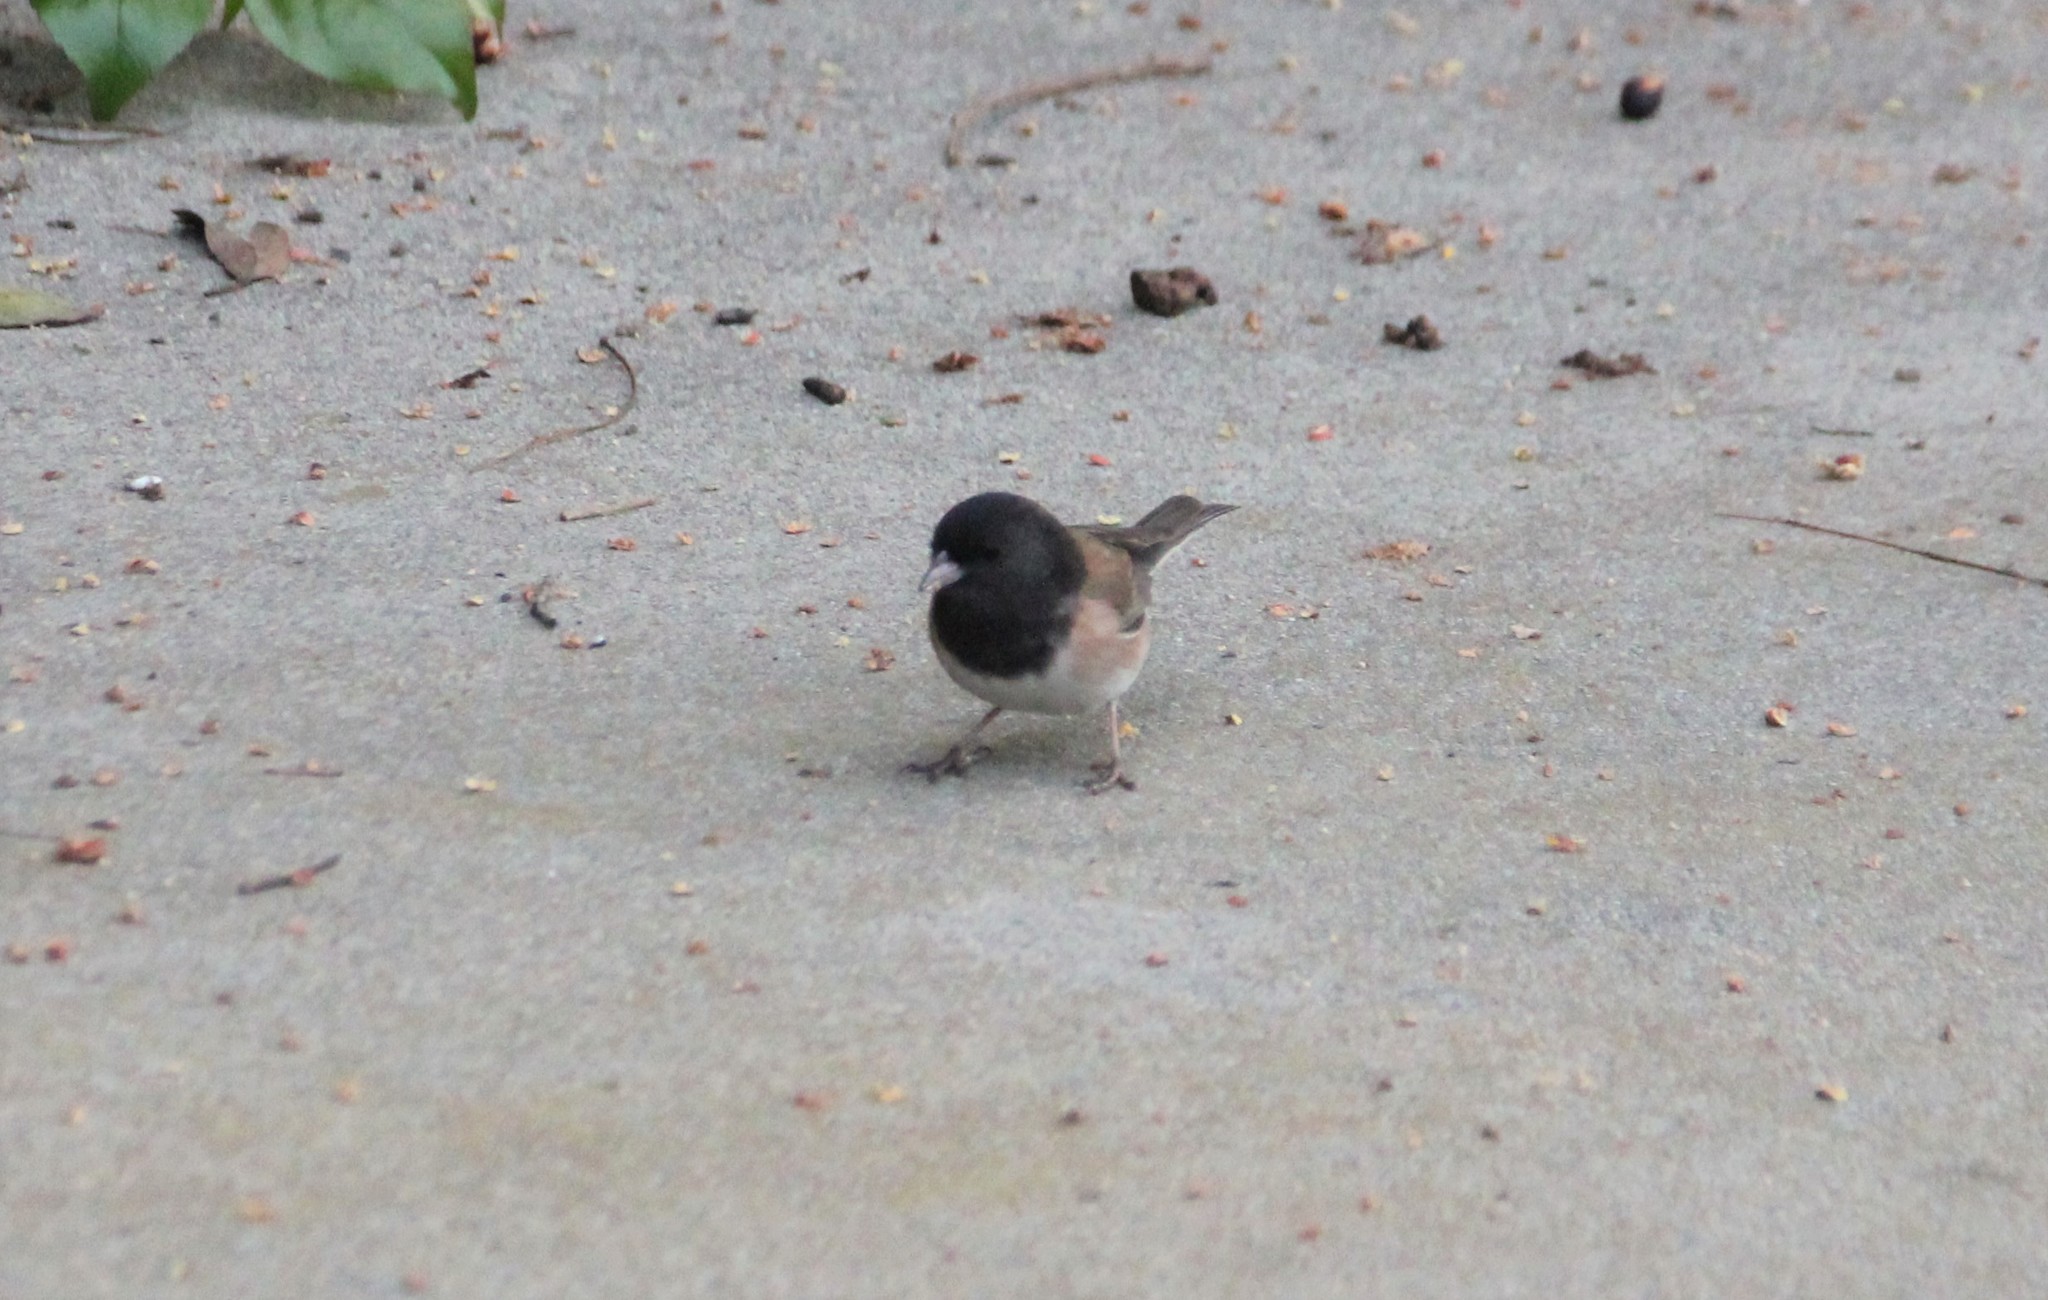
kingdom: Animalia
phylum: Chordata
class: Aves
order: Passeriformes
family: Passerellidae
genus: Junco
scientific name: Junco hyemalis
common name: Dark-eyed junco
